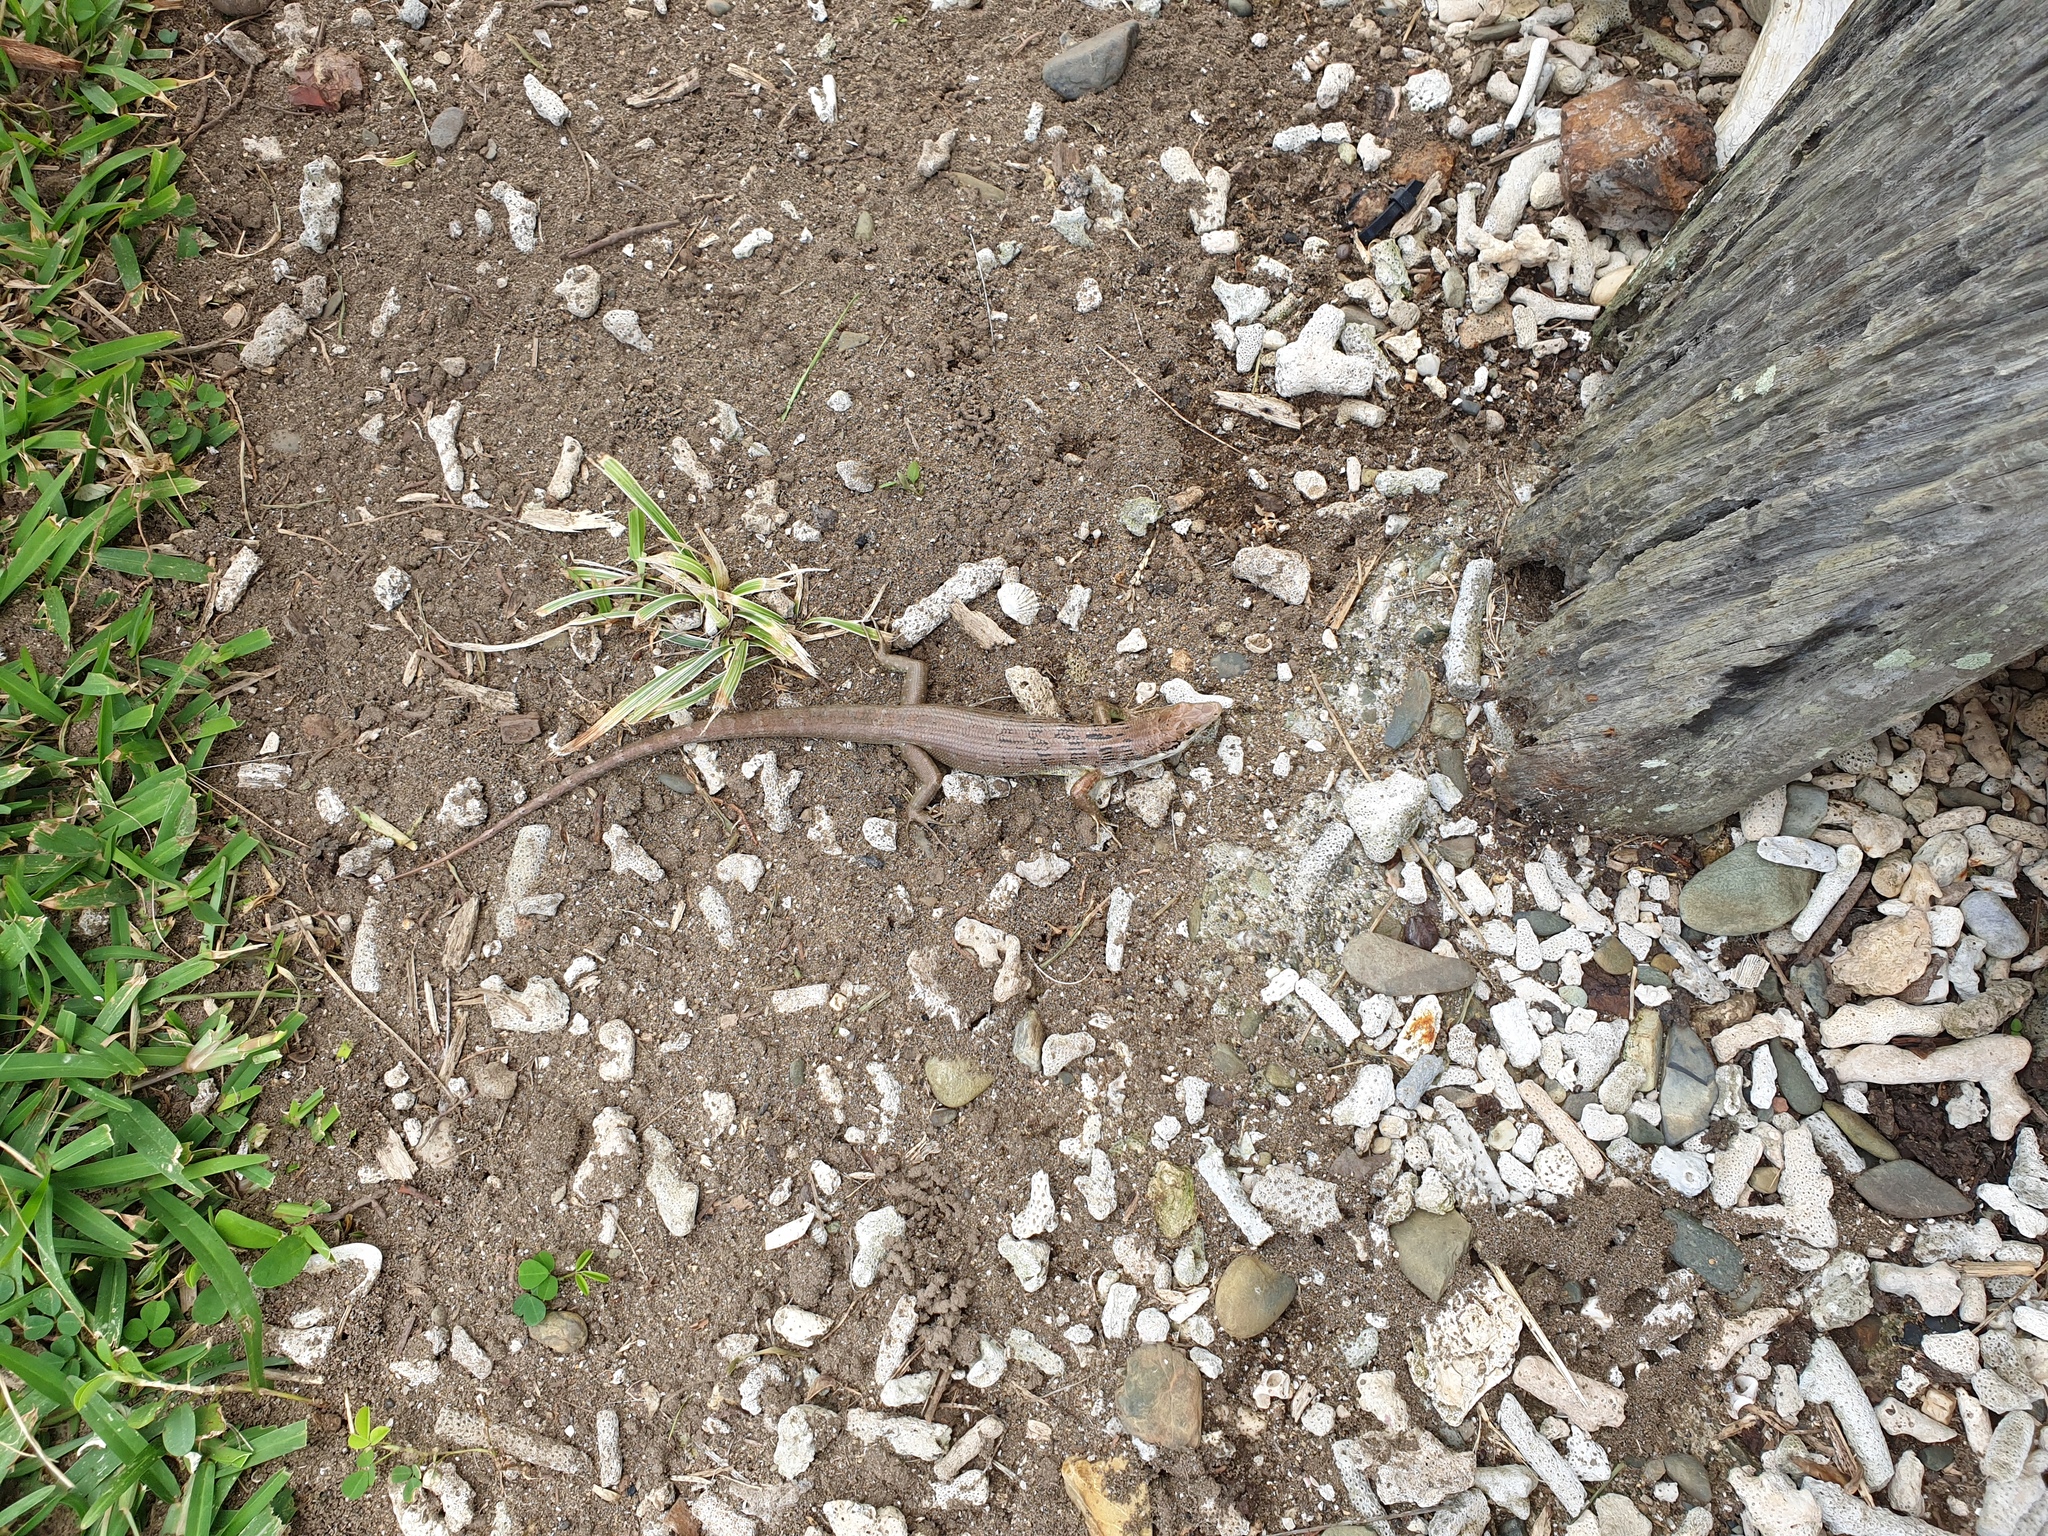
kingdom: Animalia
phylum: Chordata
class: Squamata
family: Scincidae
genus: Epibator
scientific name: Epibator nigrofasciolatus
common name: Green-bellied tree skink
